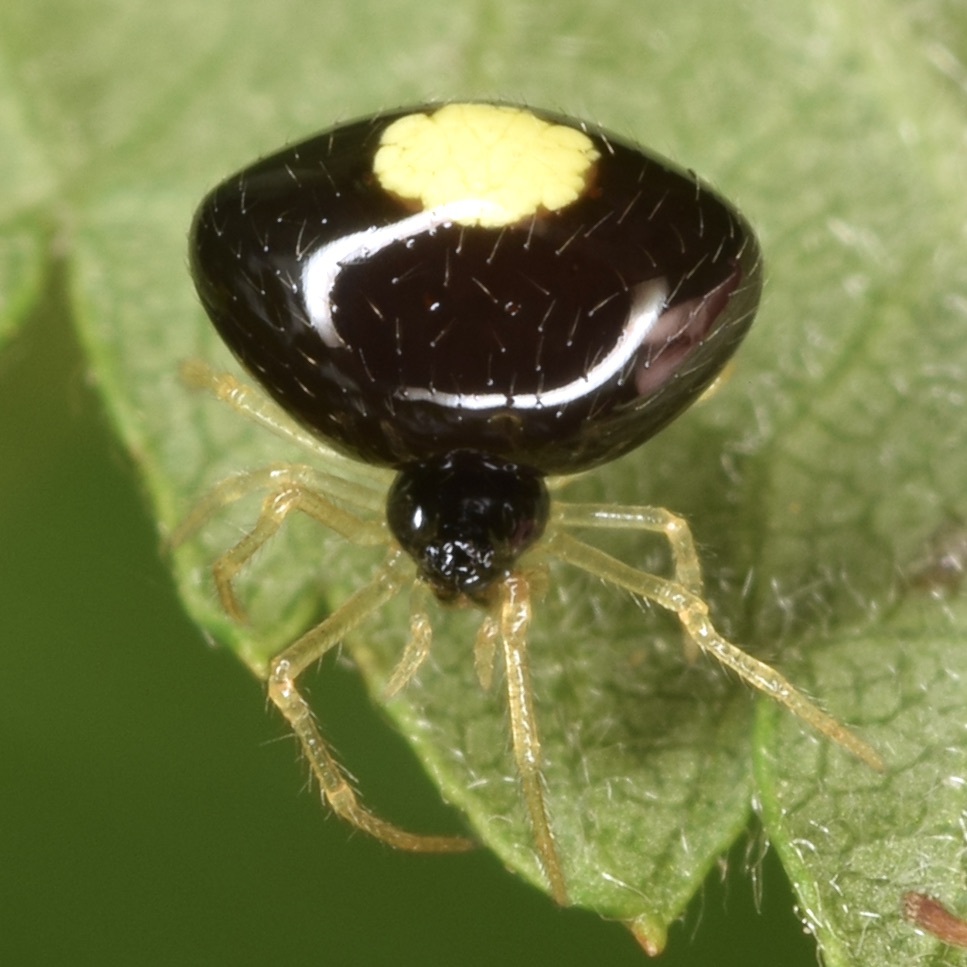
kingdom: Animalia
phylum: Arthropoda
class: Arachnida
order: Araneae
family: Theridiidae
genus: Theridula
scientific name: Theridula opulenta
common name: Cobweb spiders
